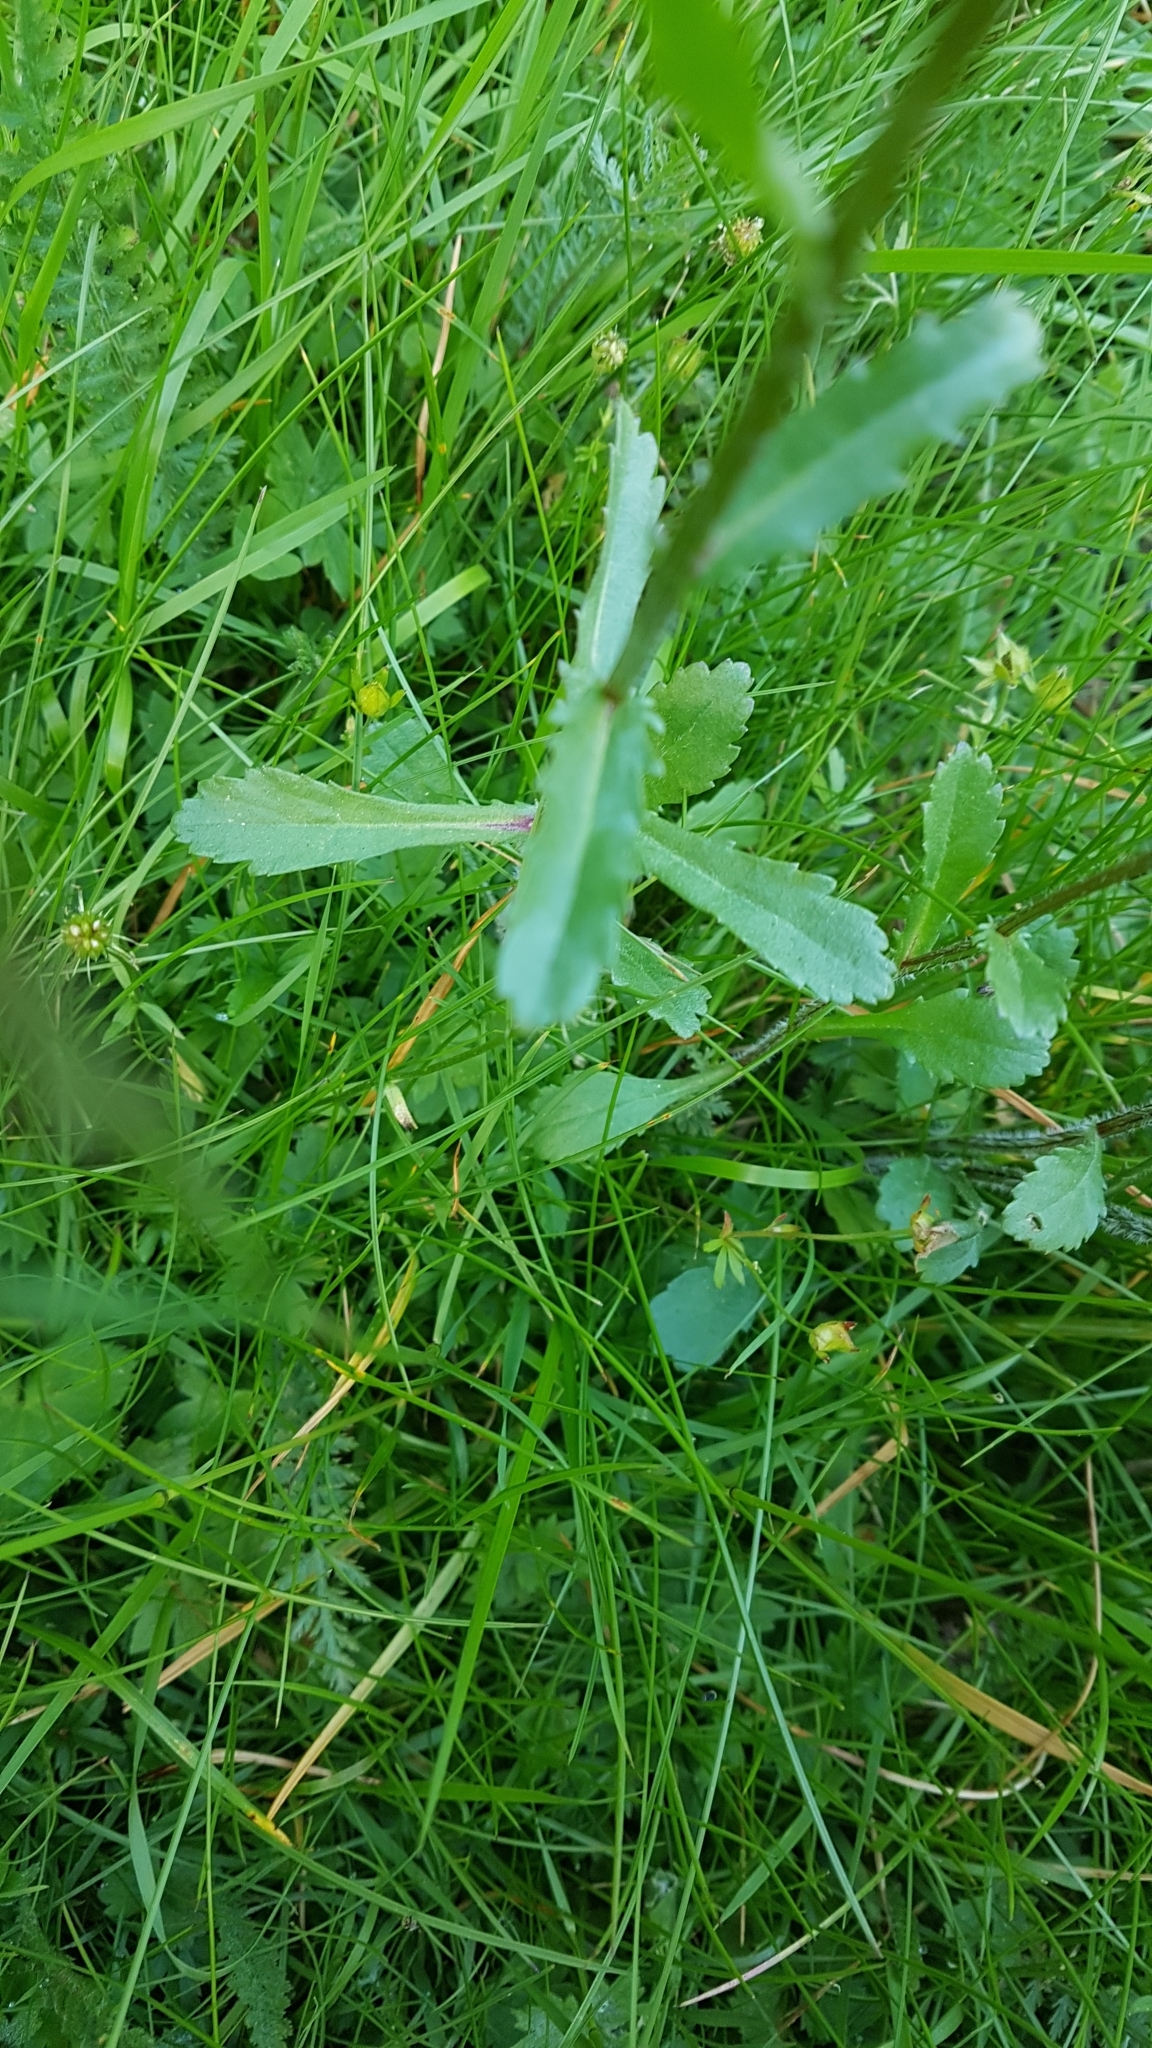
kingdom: Plantae
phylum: Tracheophyta
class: Magnoliopsida
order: Asterales
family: Asteraceae
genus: Leucanthemum
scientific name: Leucanthemum vulgare
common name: Oxeye daisy
